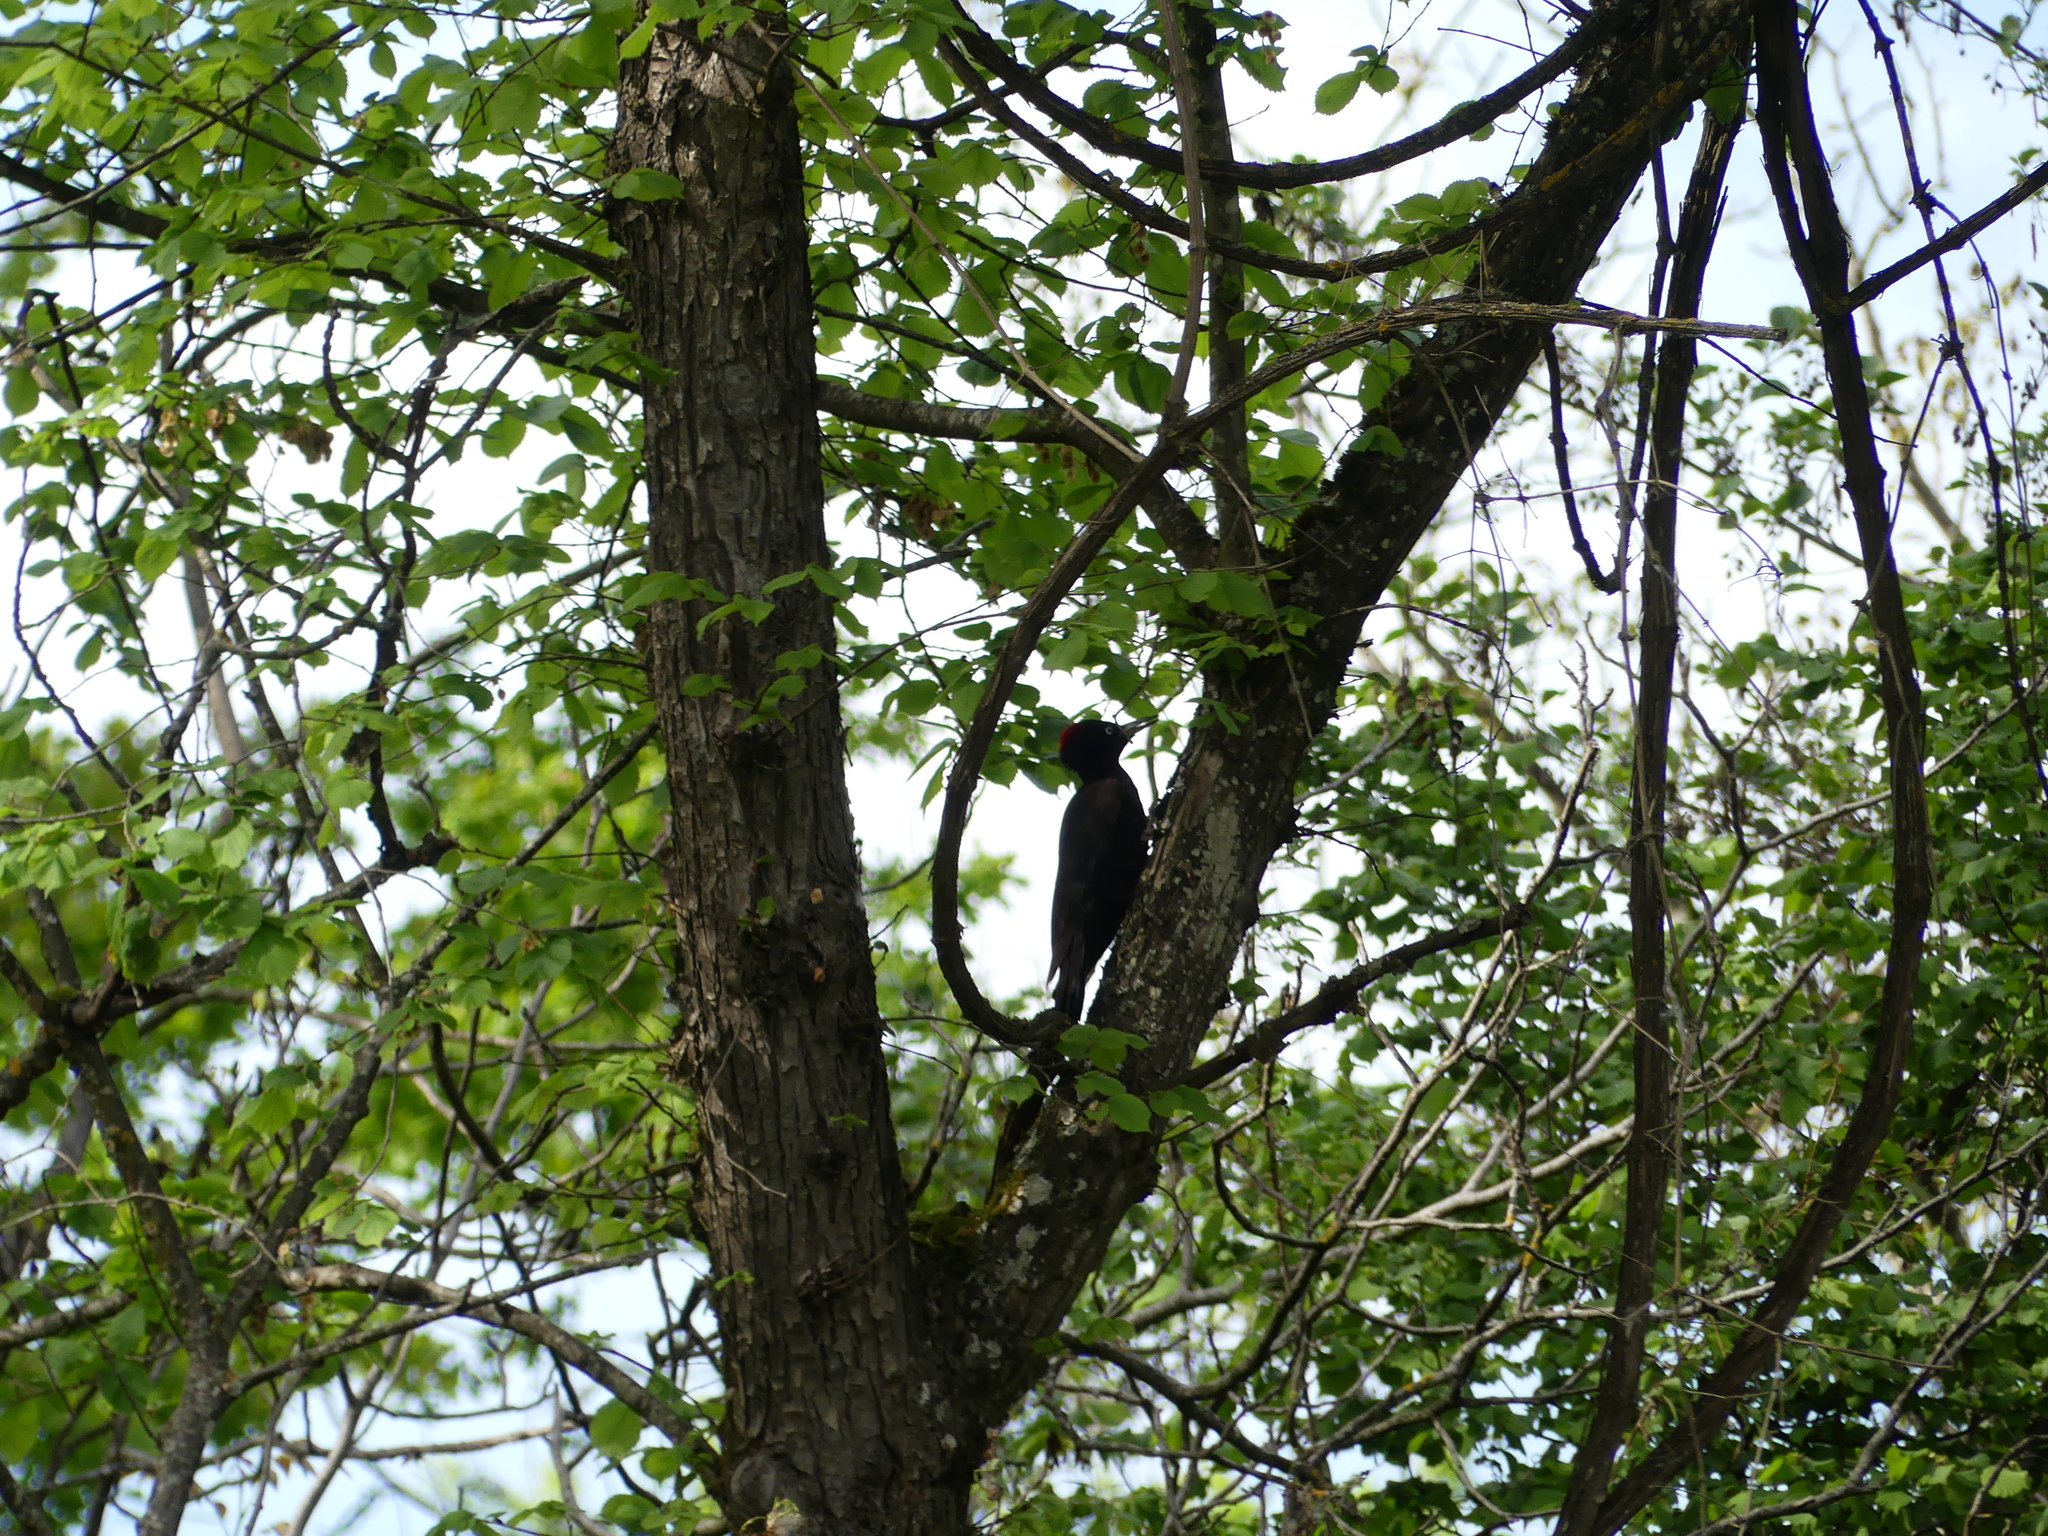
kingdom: Animalia
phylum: Chordata
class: Aves
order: Piciformes
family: Picidae
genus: Dryocopus
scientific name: Dryocopus martius
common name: Black woodpecker
